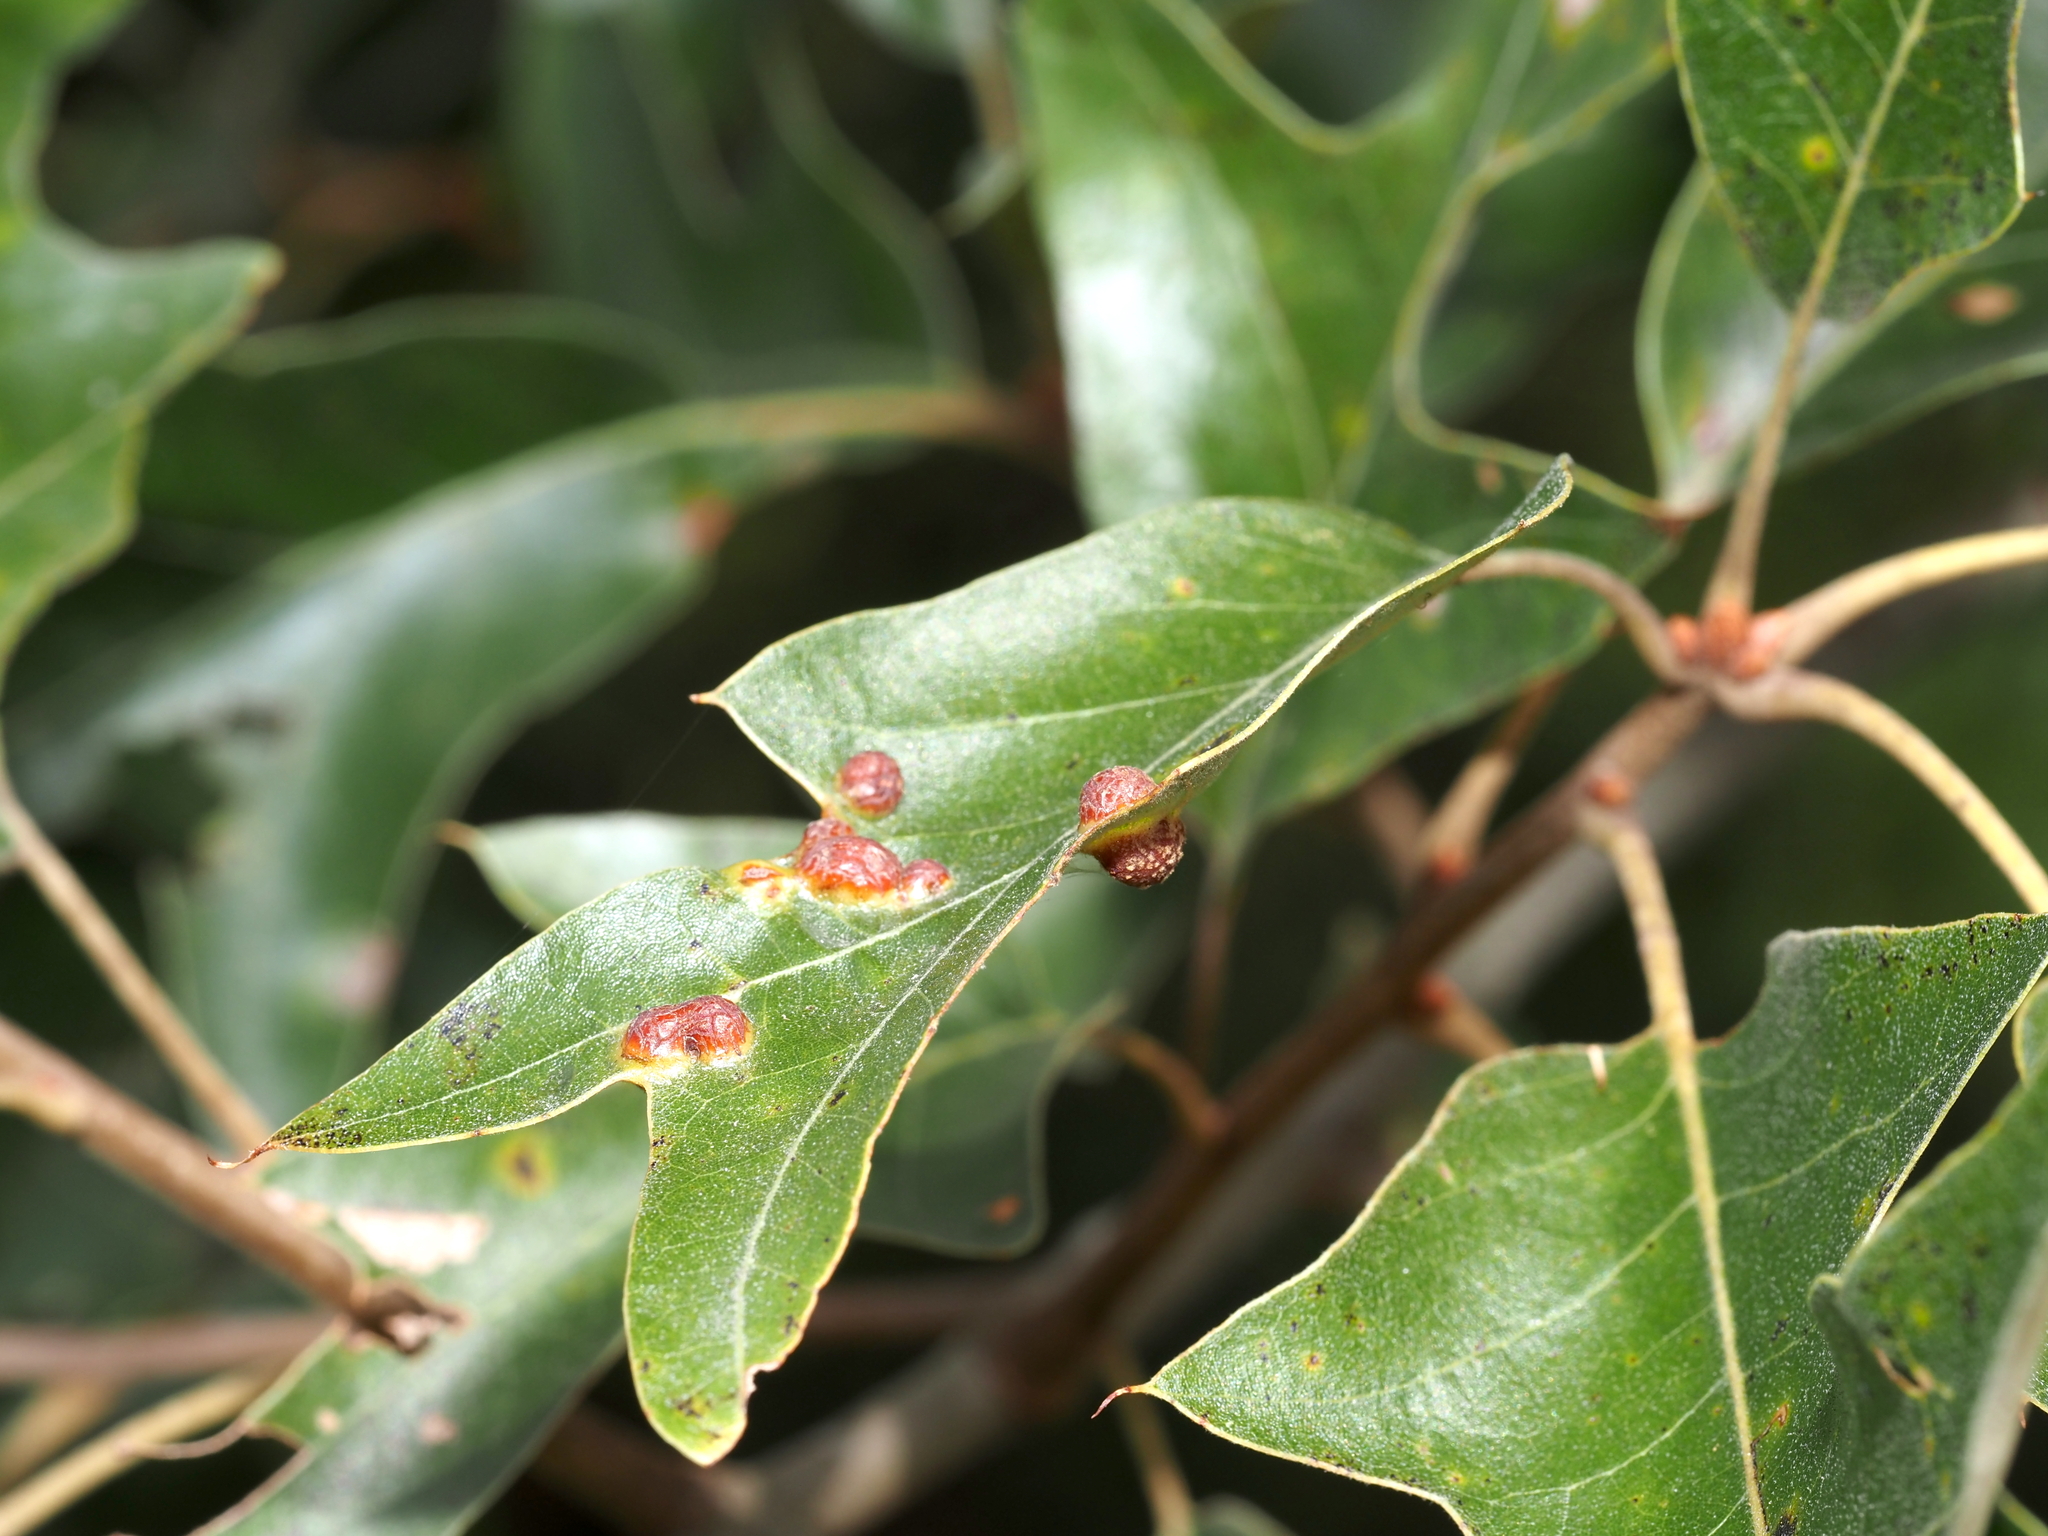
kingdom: Animalia
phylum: Arthropoda
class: Insecta
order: Diptera
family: Cecidomyiidae
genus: Polystepha
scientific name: Polystepha symmetrica
